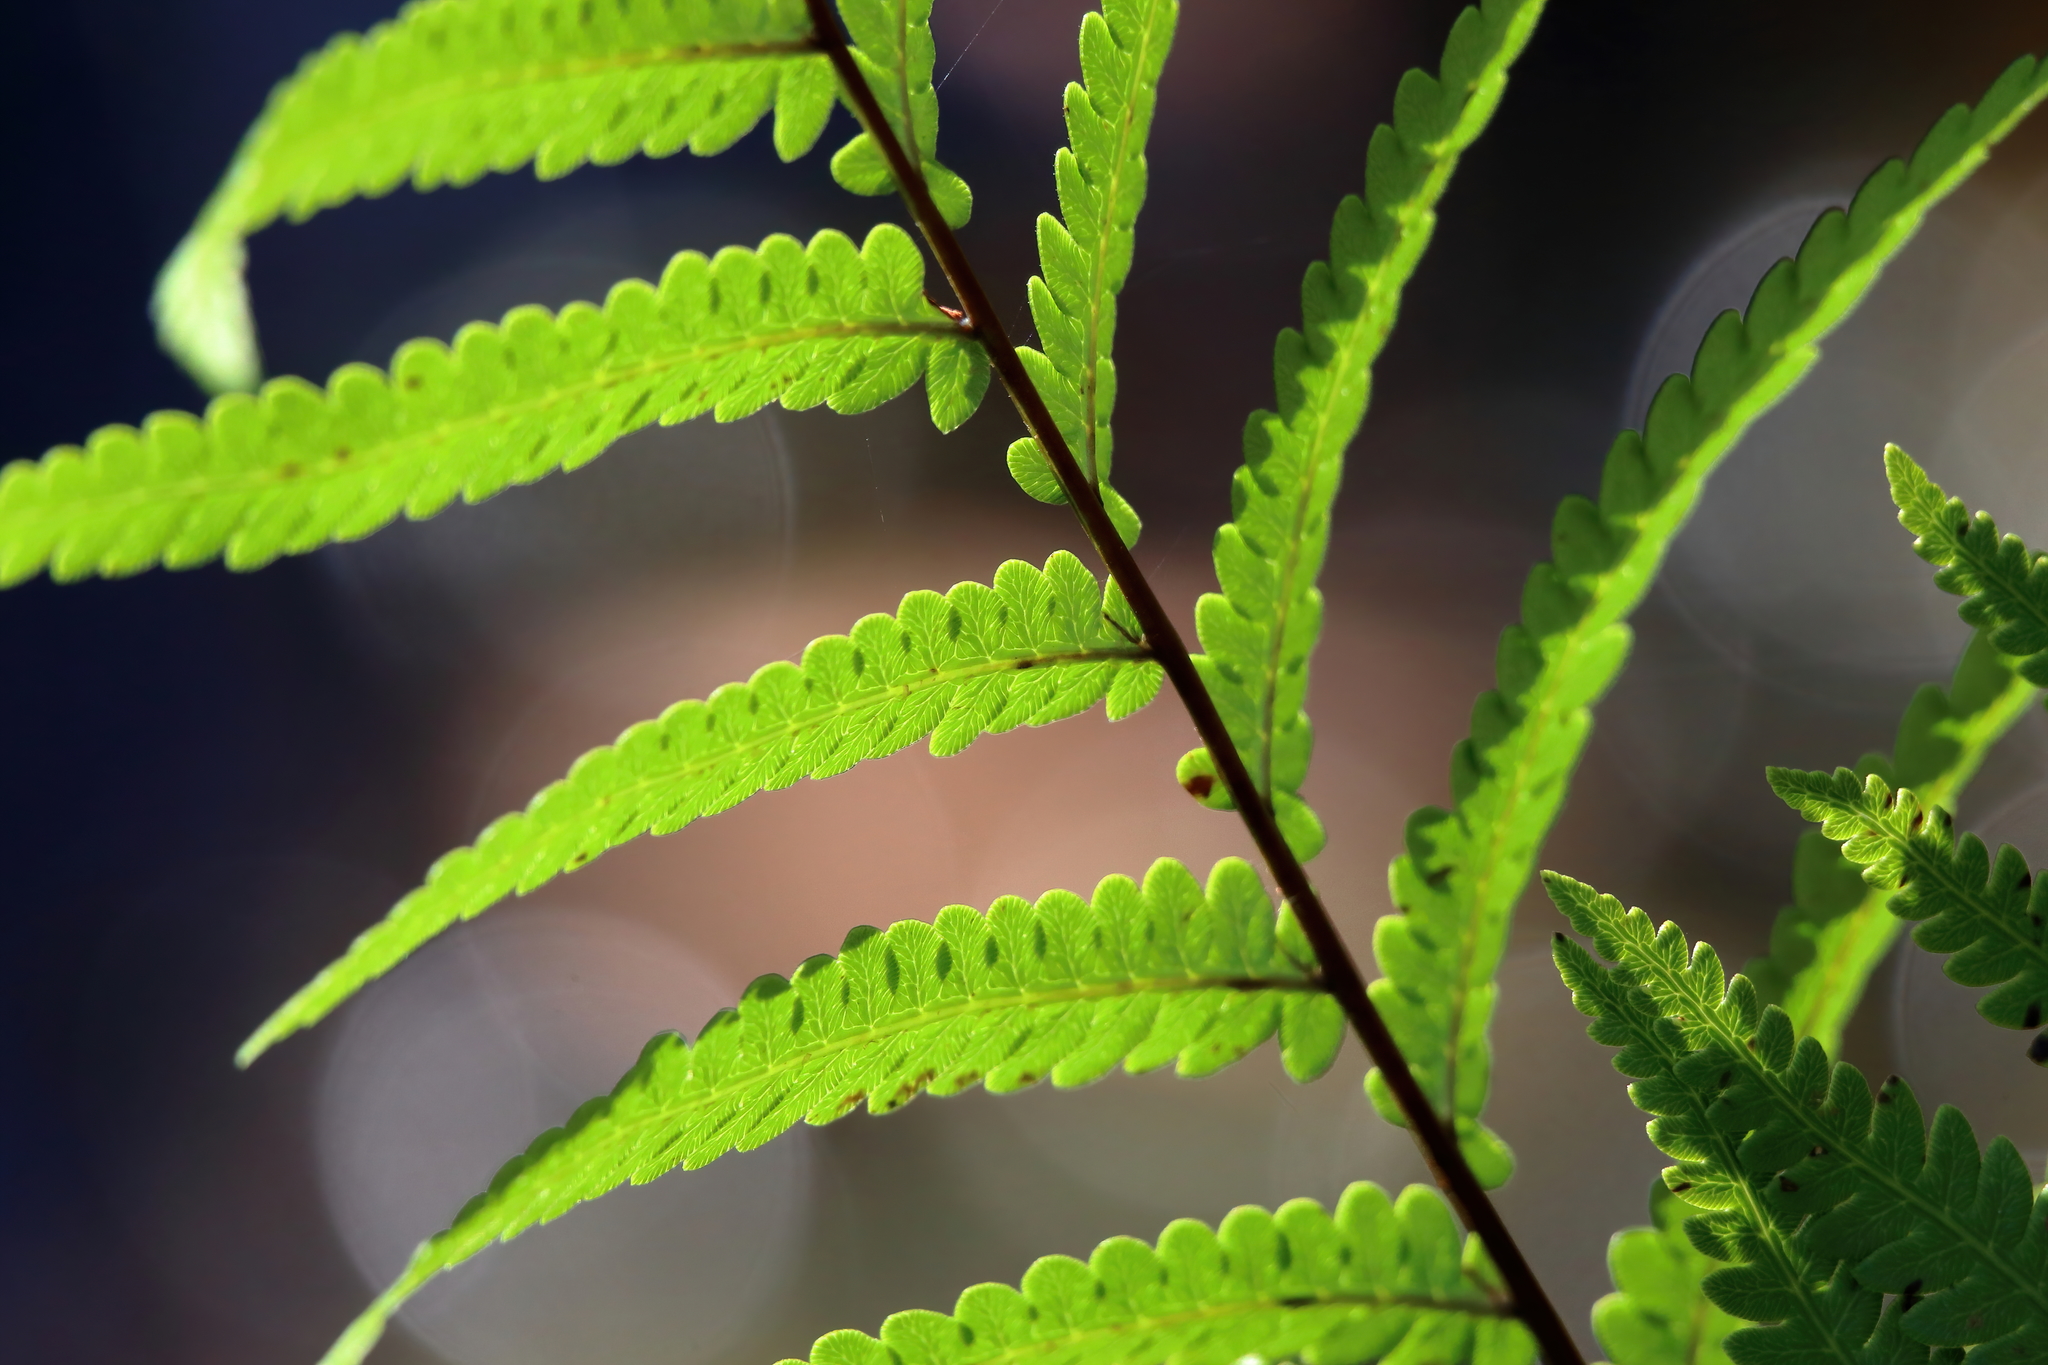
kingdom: Plantae
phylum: Tracheophyta
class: Polypodiopsida
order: Polypodiales
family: Blechnaceae
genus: Anchistea
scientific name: Anchistea virginica
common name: Virginia chain fern
